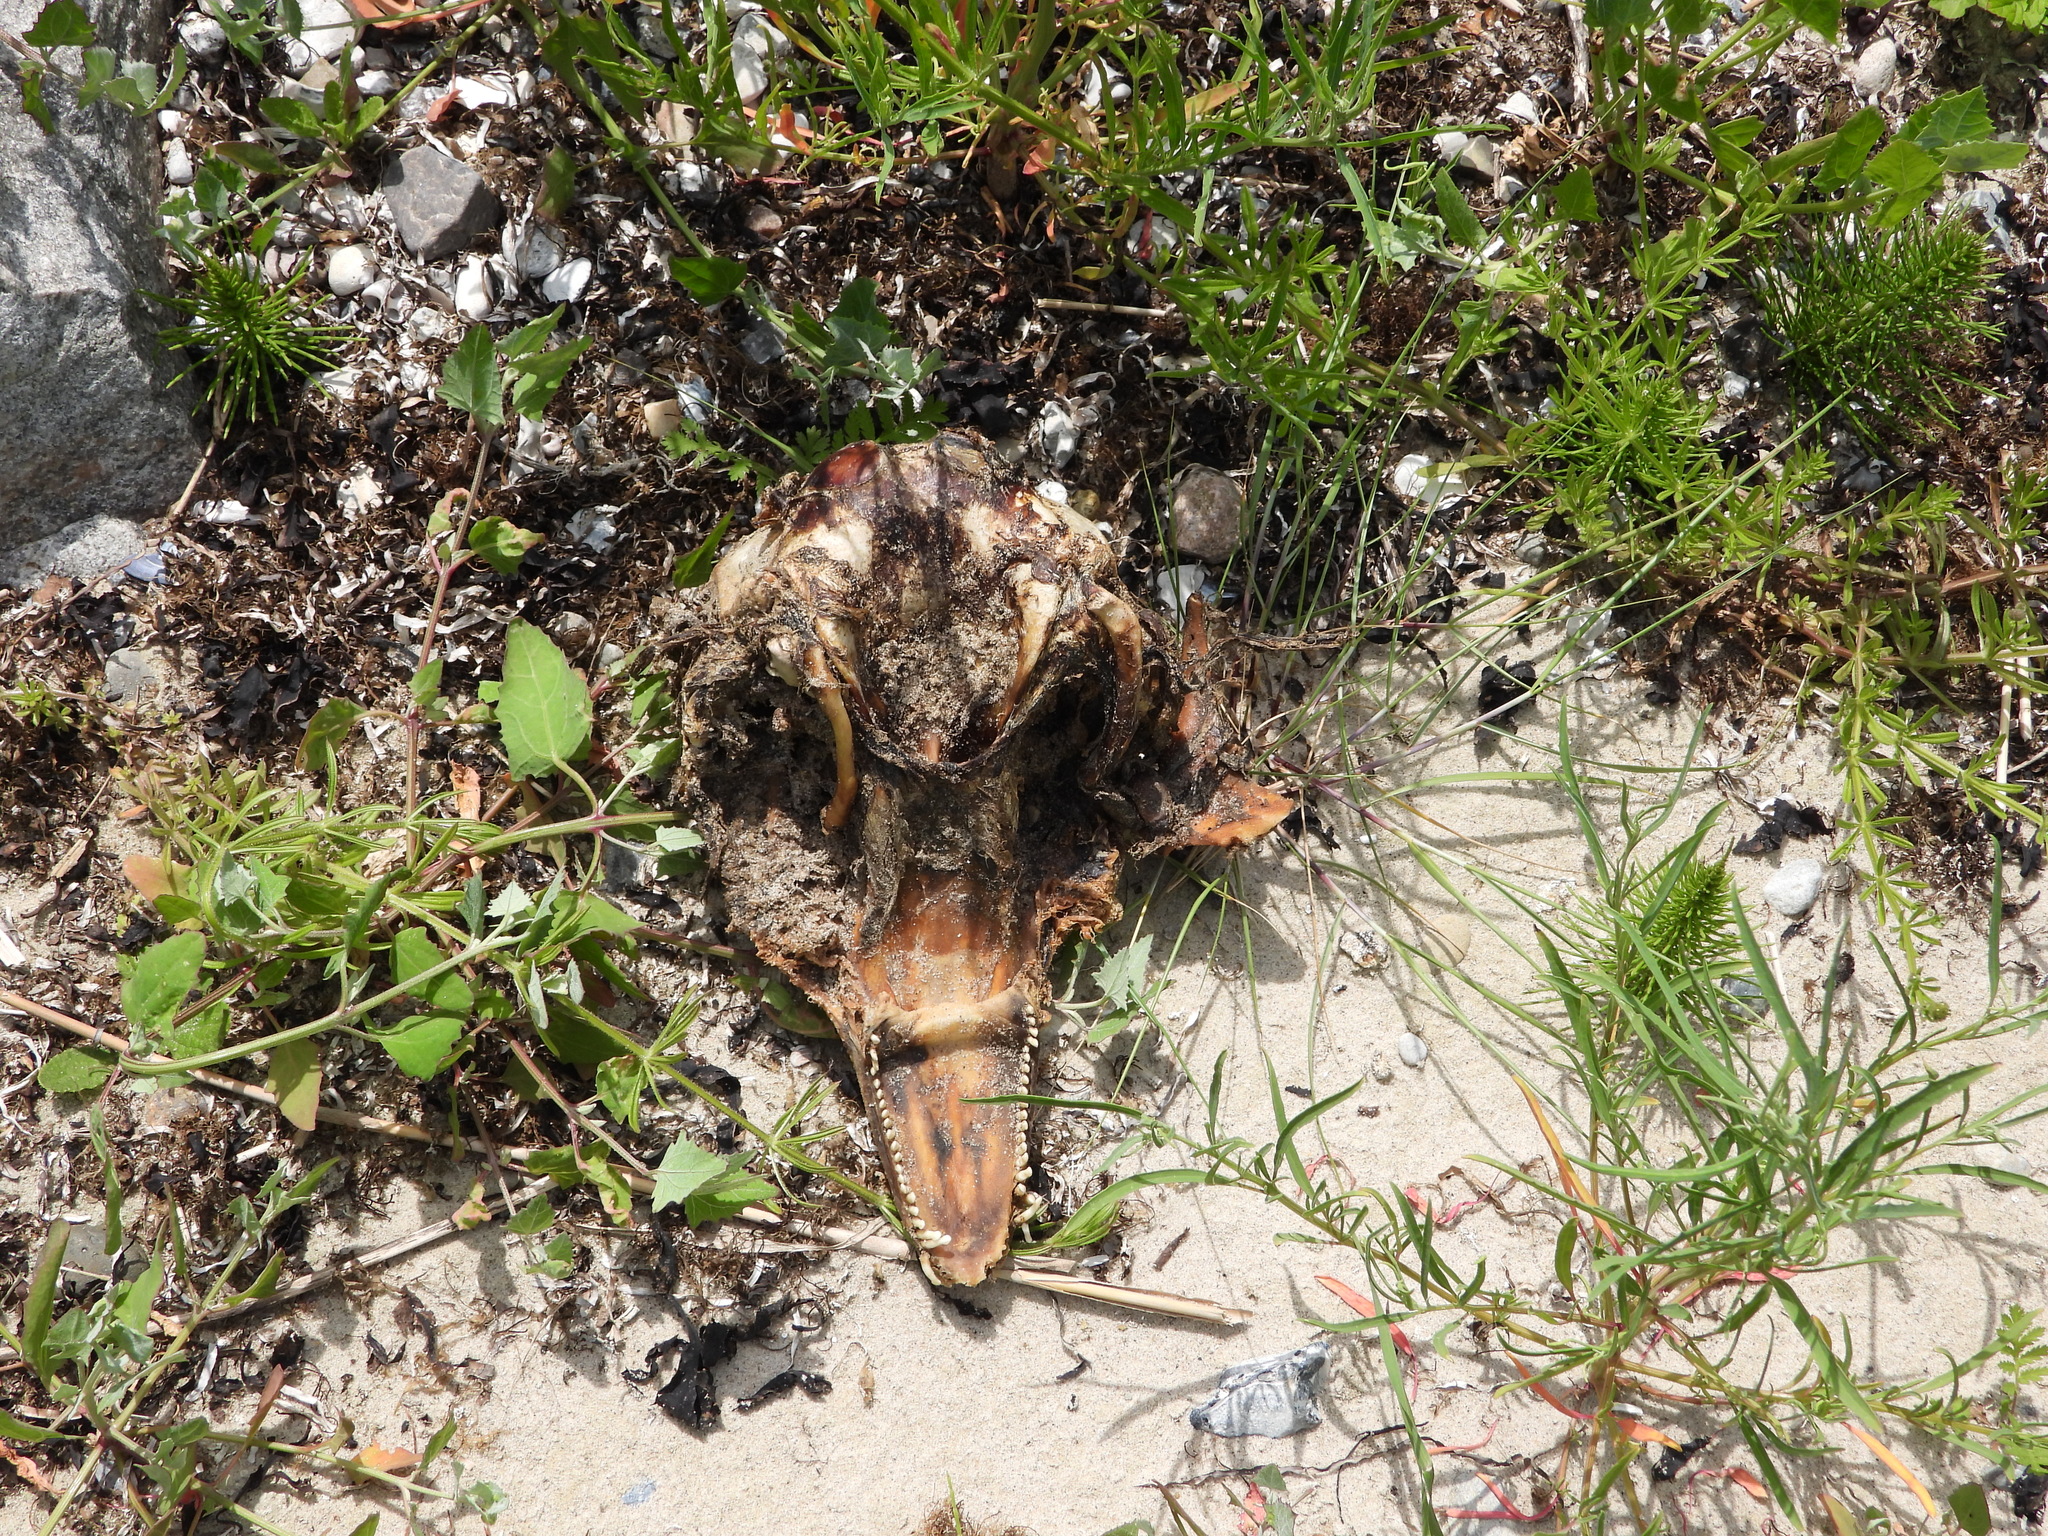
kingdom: Animalia
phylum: Chordata
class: Mammalia
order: Cetacea
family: Phocoenidae
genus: Phocoena
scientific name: Phocoena phocoena
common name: Harbor porpoise
